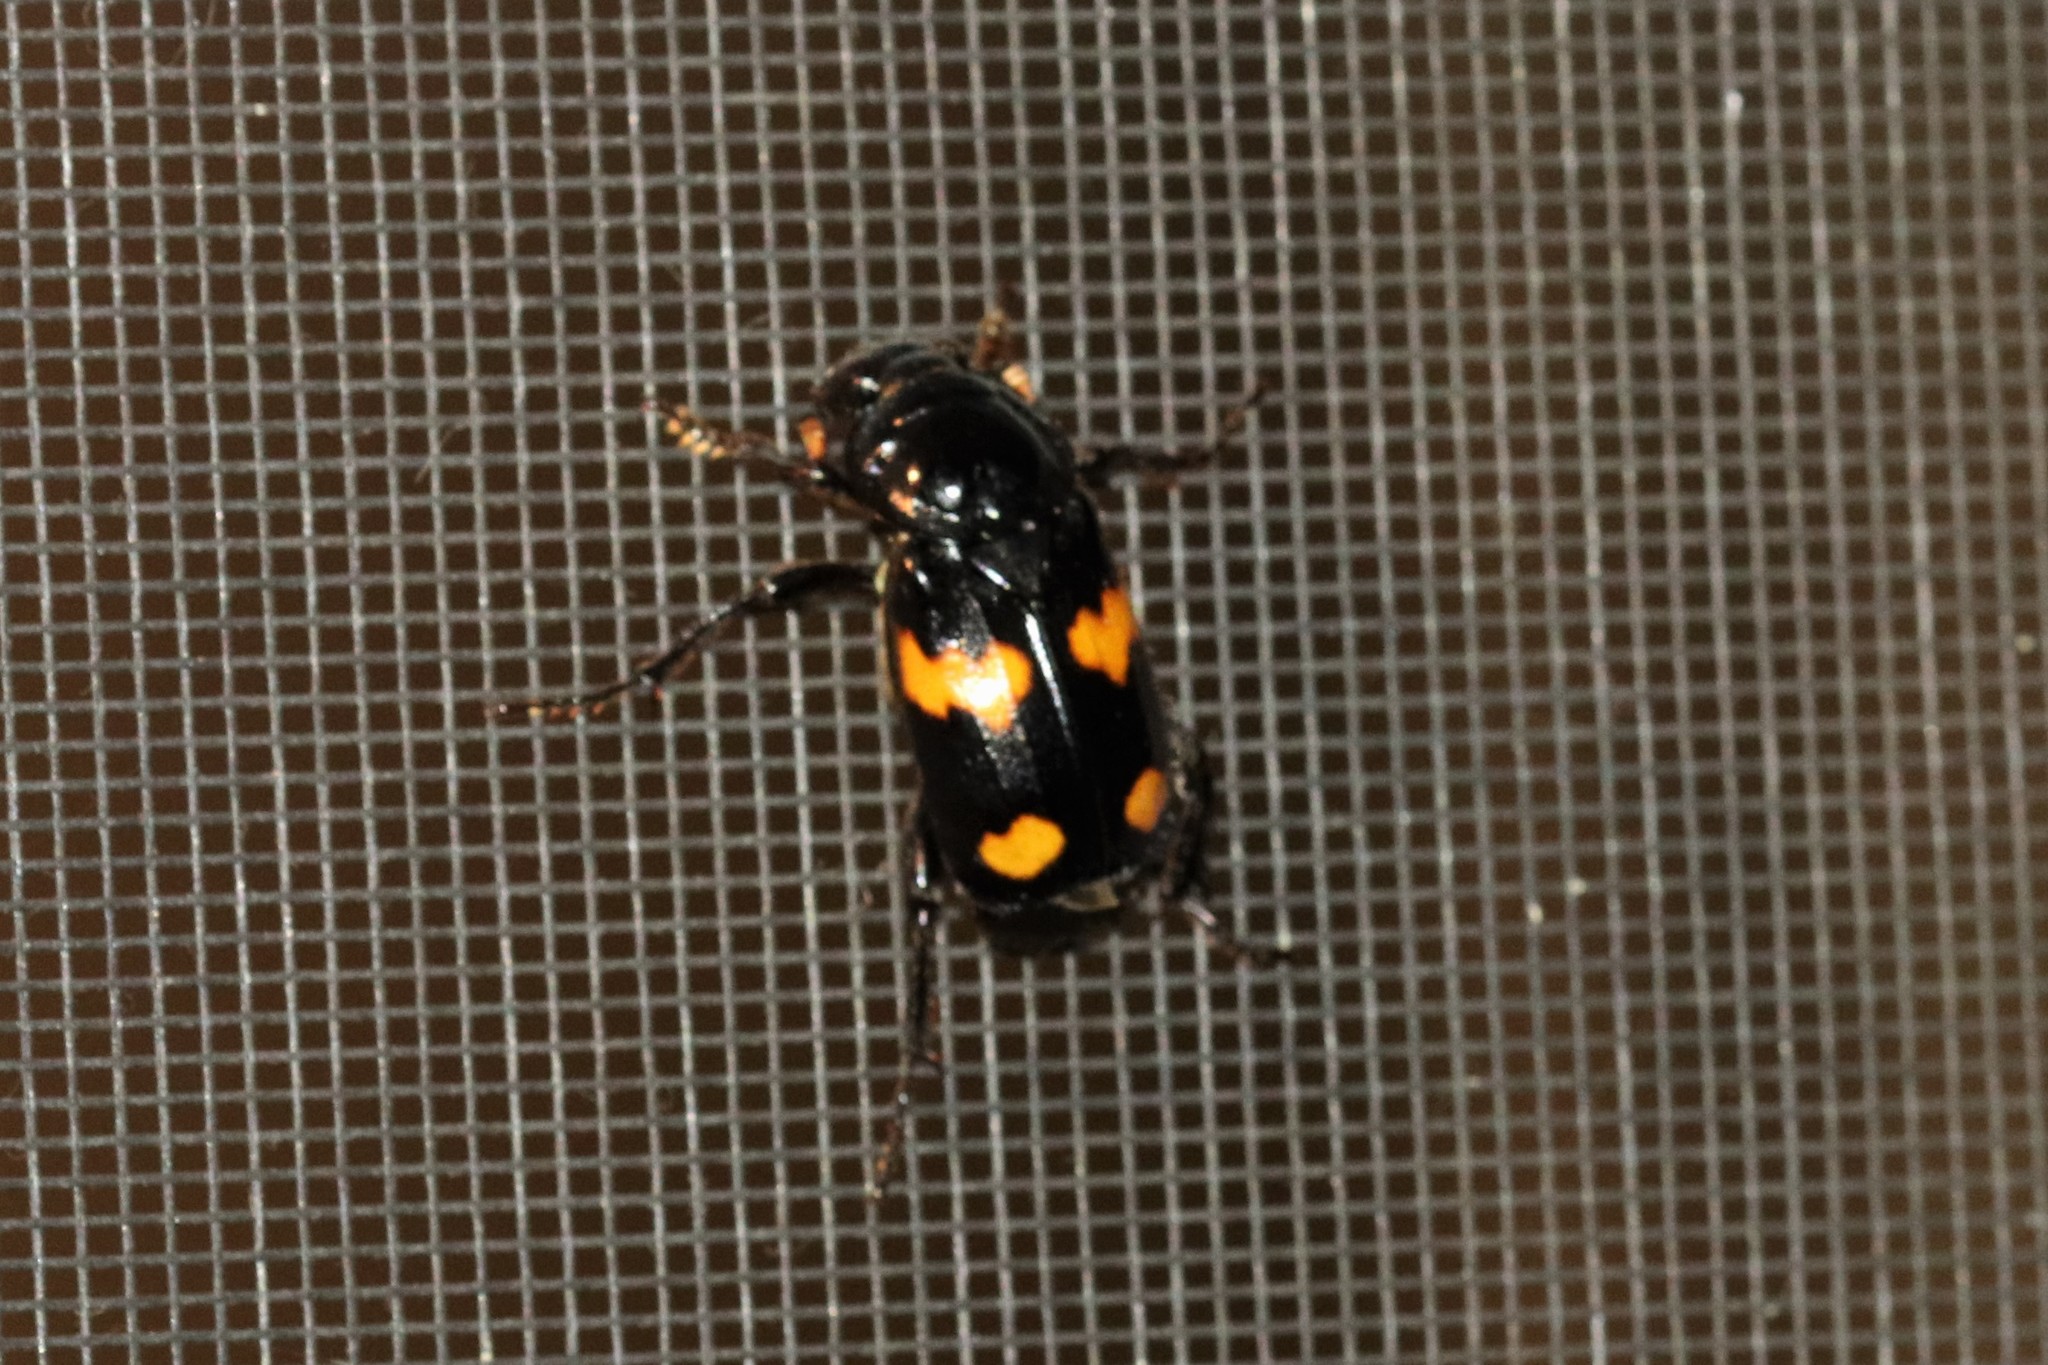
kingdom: Animalia
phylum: Arthropoda
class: Insecta
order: Coleoptera
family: Staphylinidae
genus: Nicrophorus
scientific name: Nicrophorus orbicollis
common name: Roundneck sexton beetle
